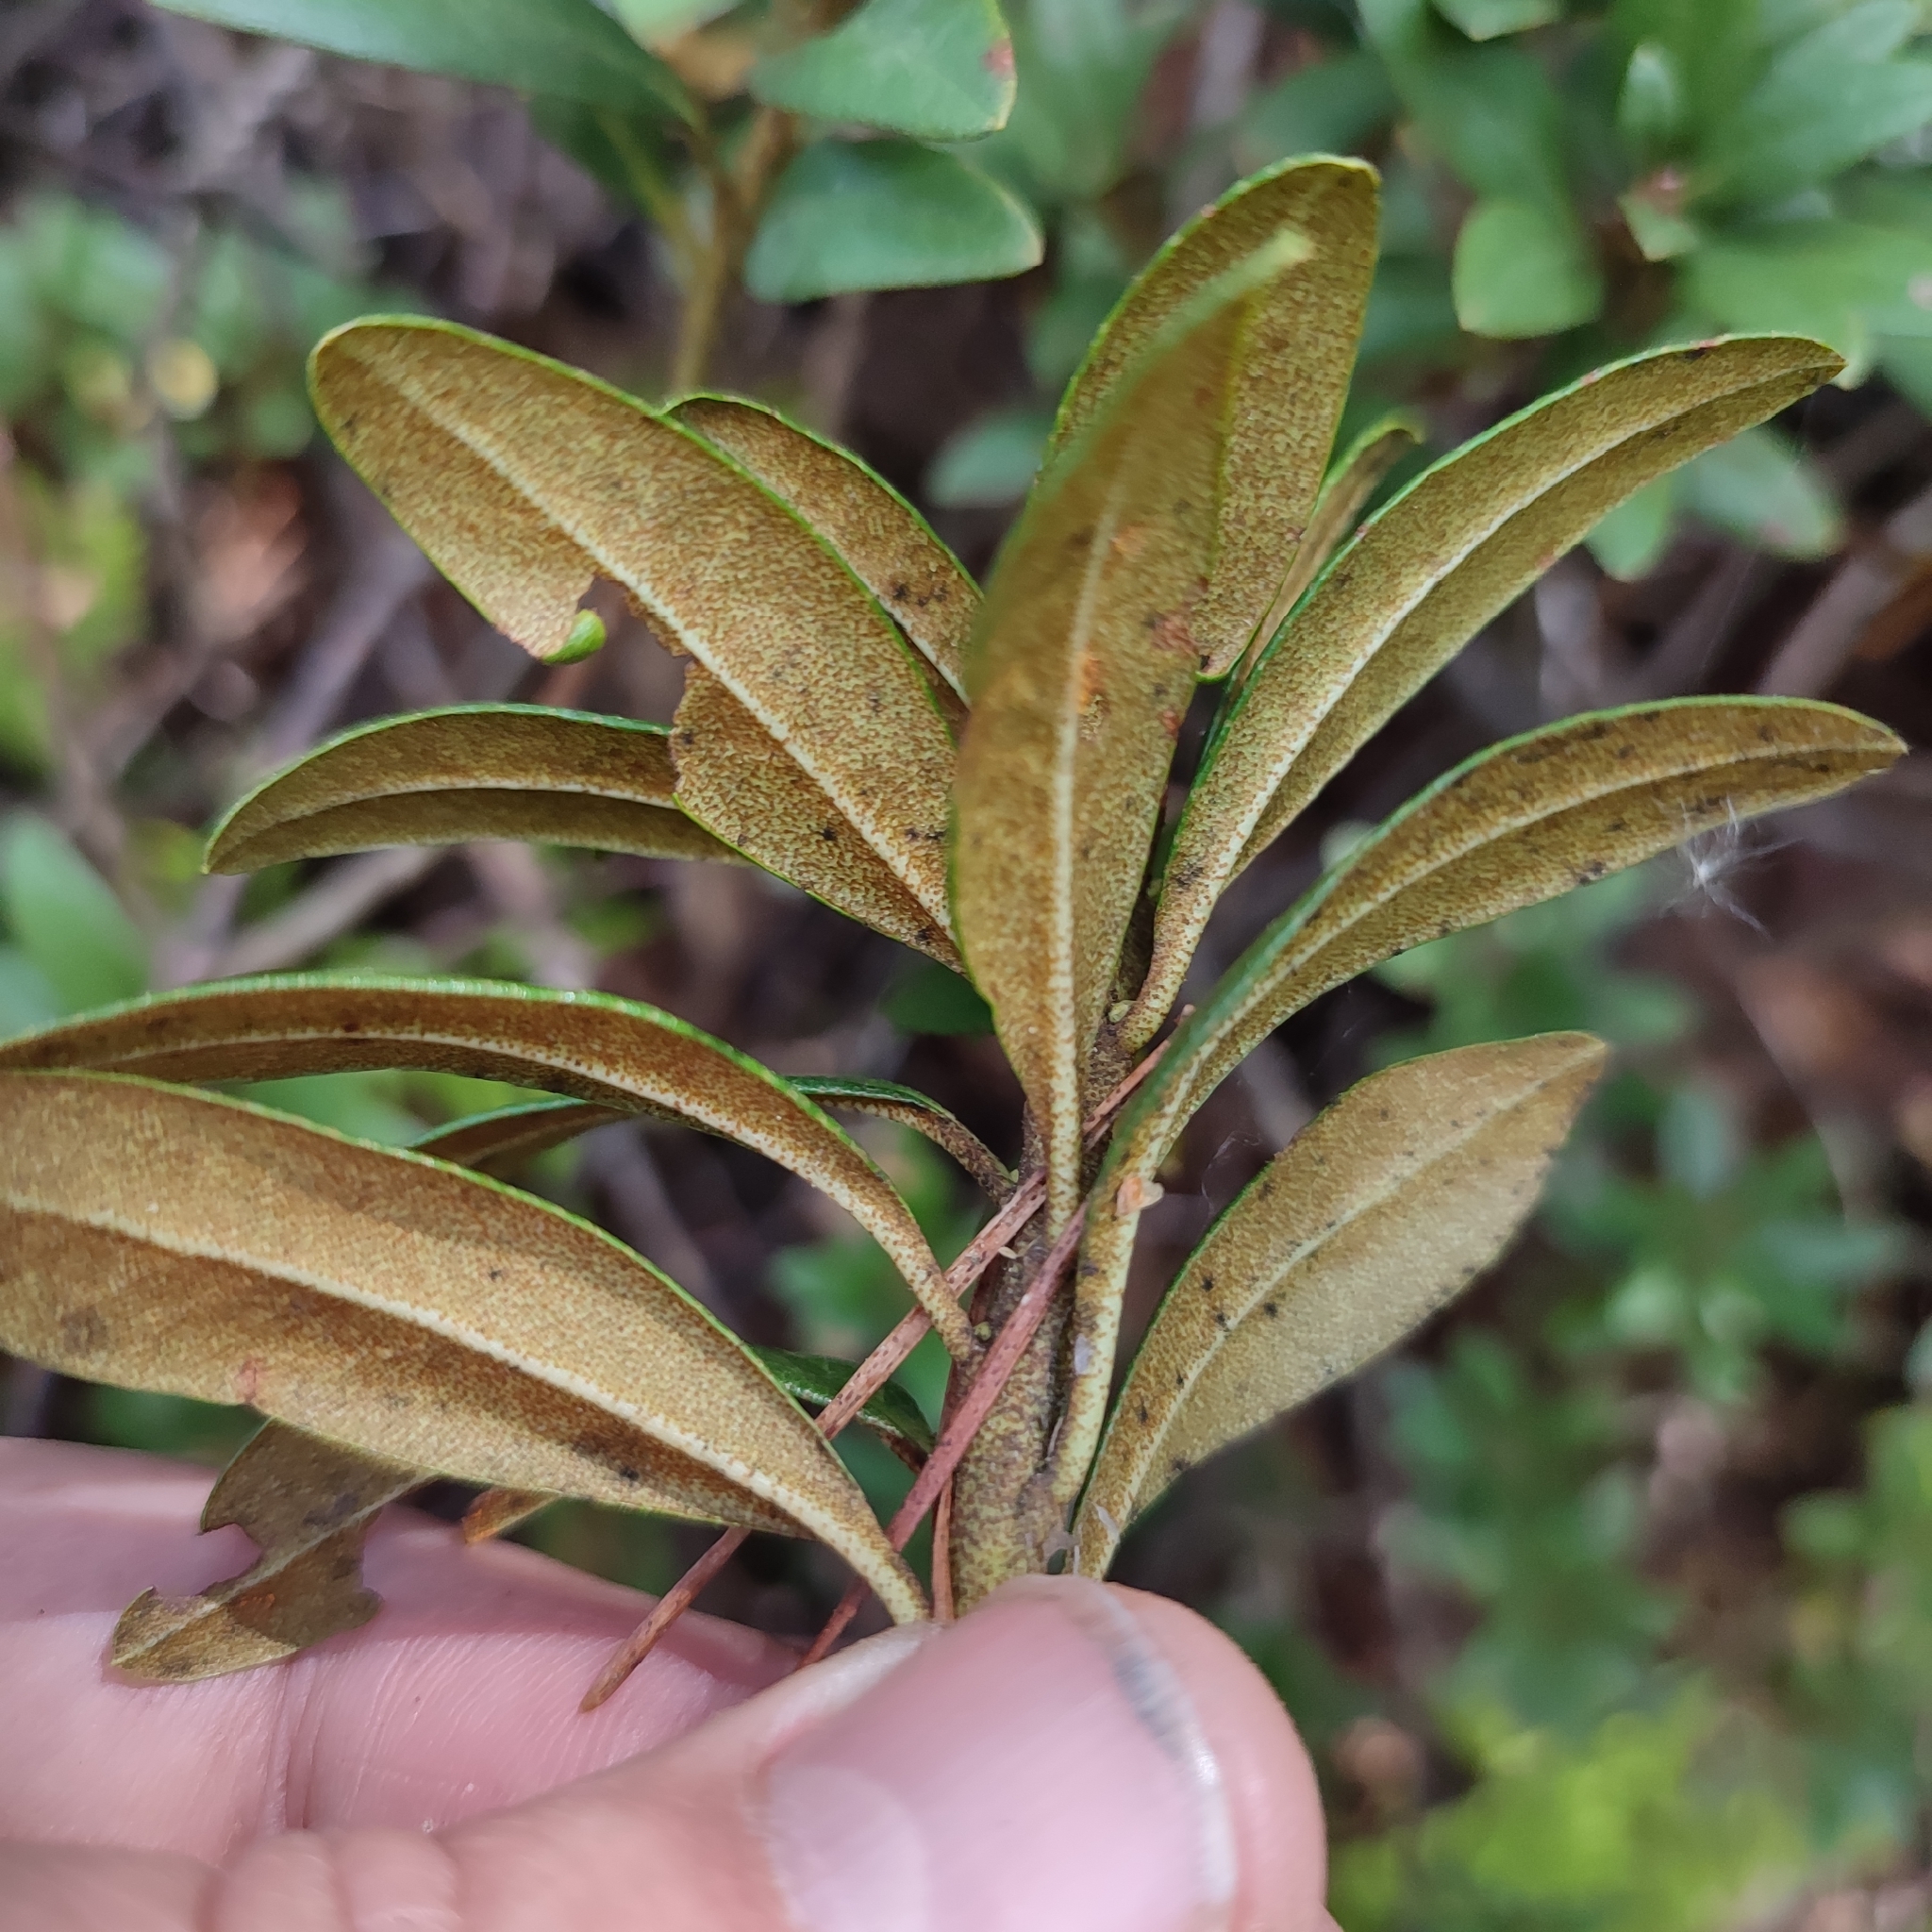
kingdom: Plantae
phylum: Tracheophyta
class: Magnoliopsida
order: Ericales
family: Ericaceae
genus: Rhododendron
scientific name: Rhododendron ferrugineum
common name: Alpenrose
